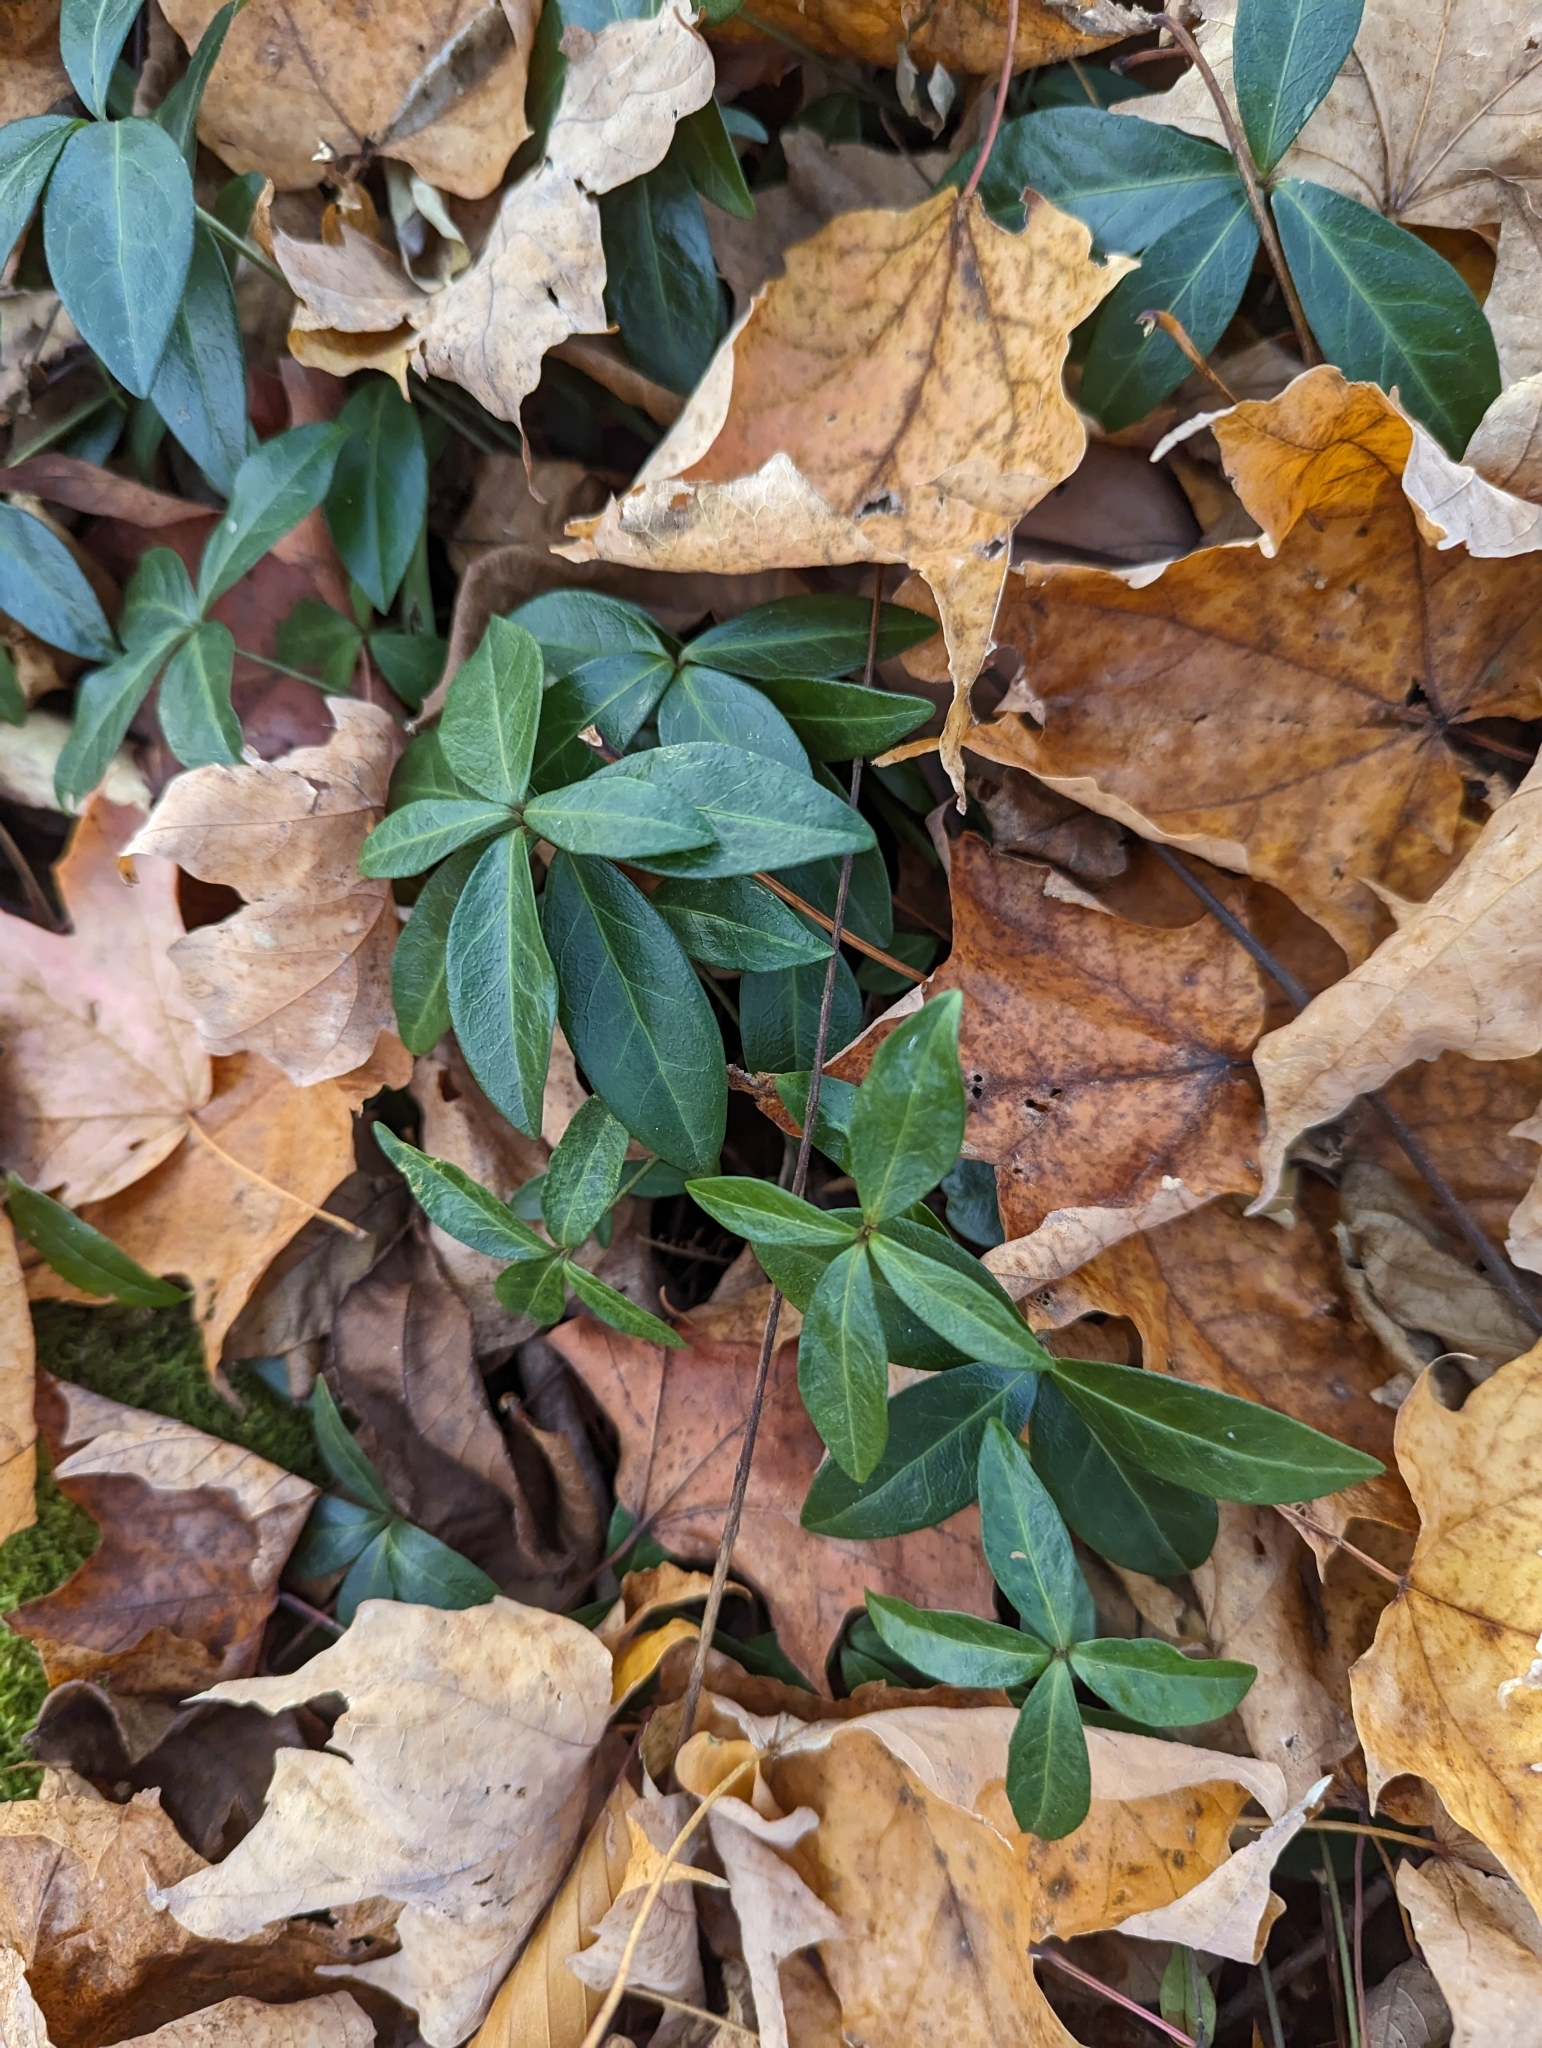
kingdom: Plantae
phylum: Tracheophyta
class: Magnoliopsida
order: Gentianales
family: Apocynaceae
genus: Vinca
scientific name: Vinca minor
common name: Lesser periwinkle
